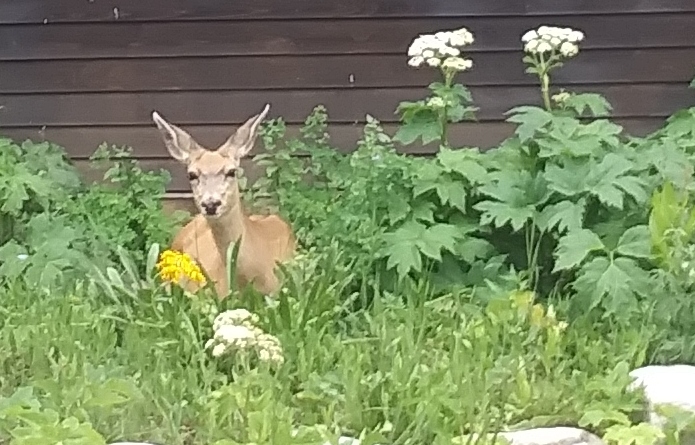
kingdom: Animalia
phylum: Chordata
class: Mammalia
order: Artiodactyla
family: Cervidae
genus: Odocoileus
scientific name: Odocoileus hemionus
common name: Mule deer
